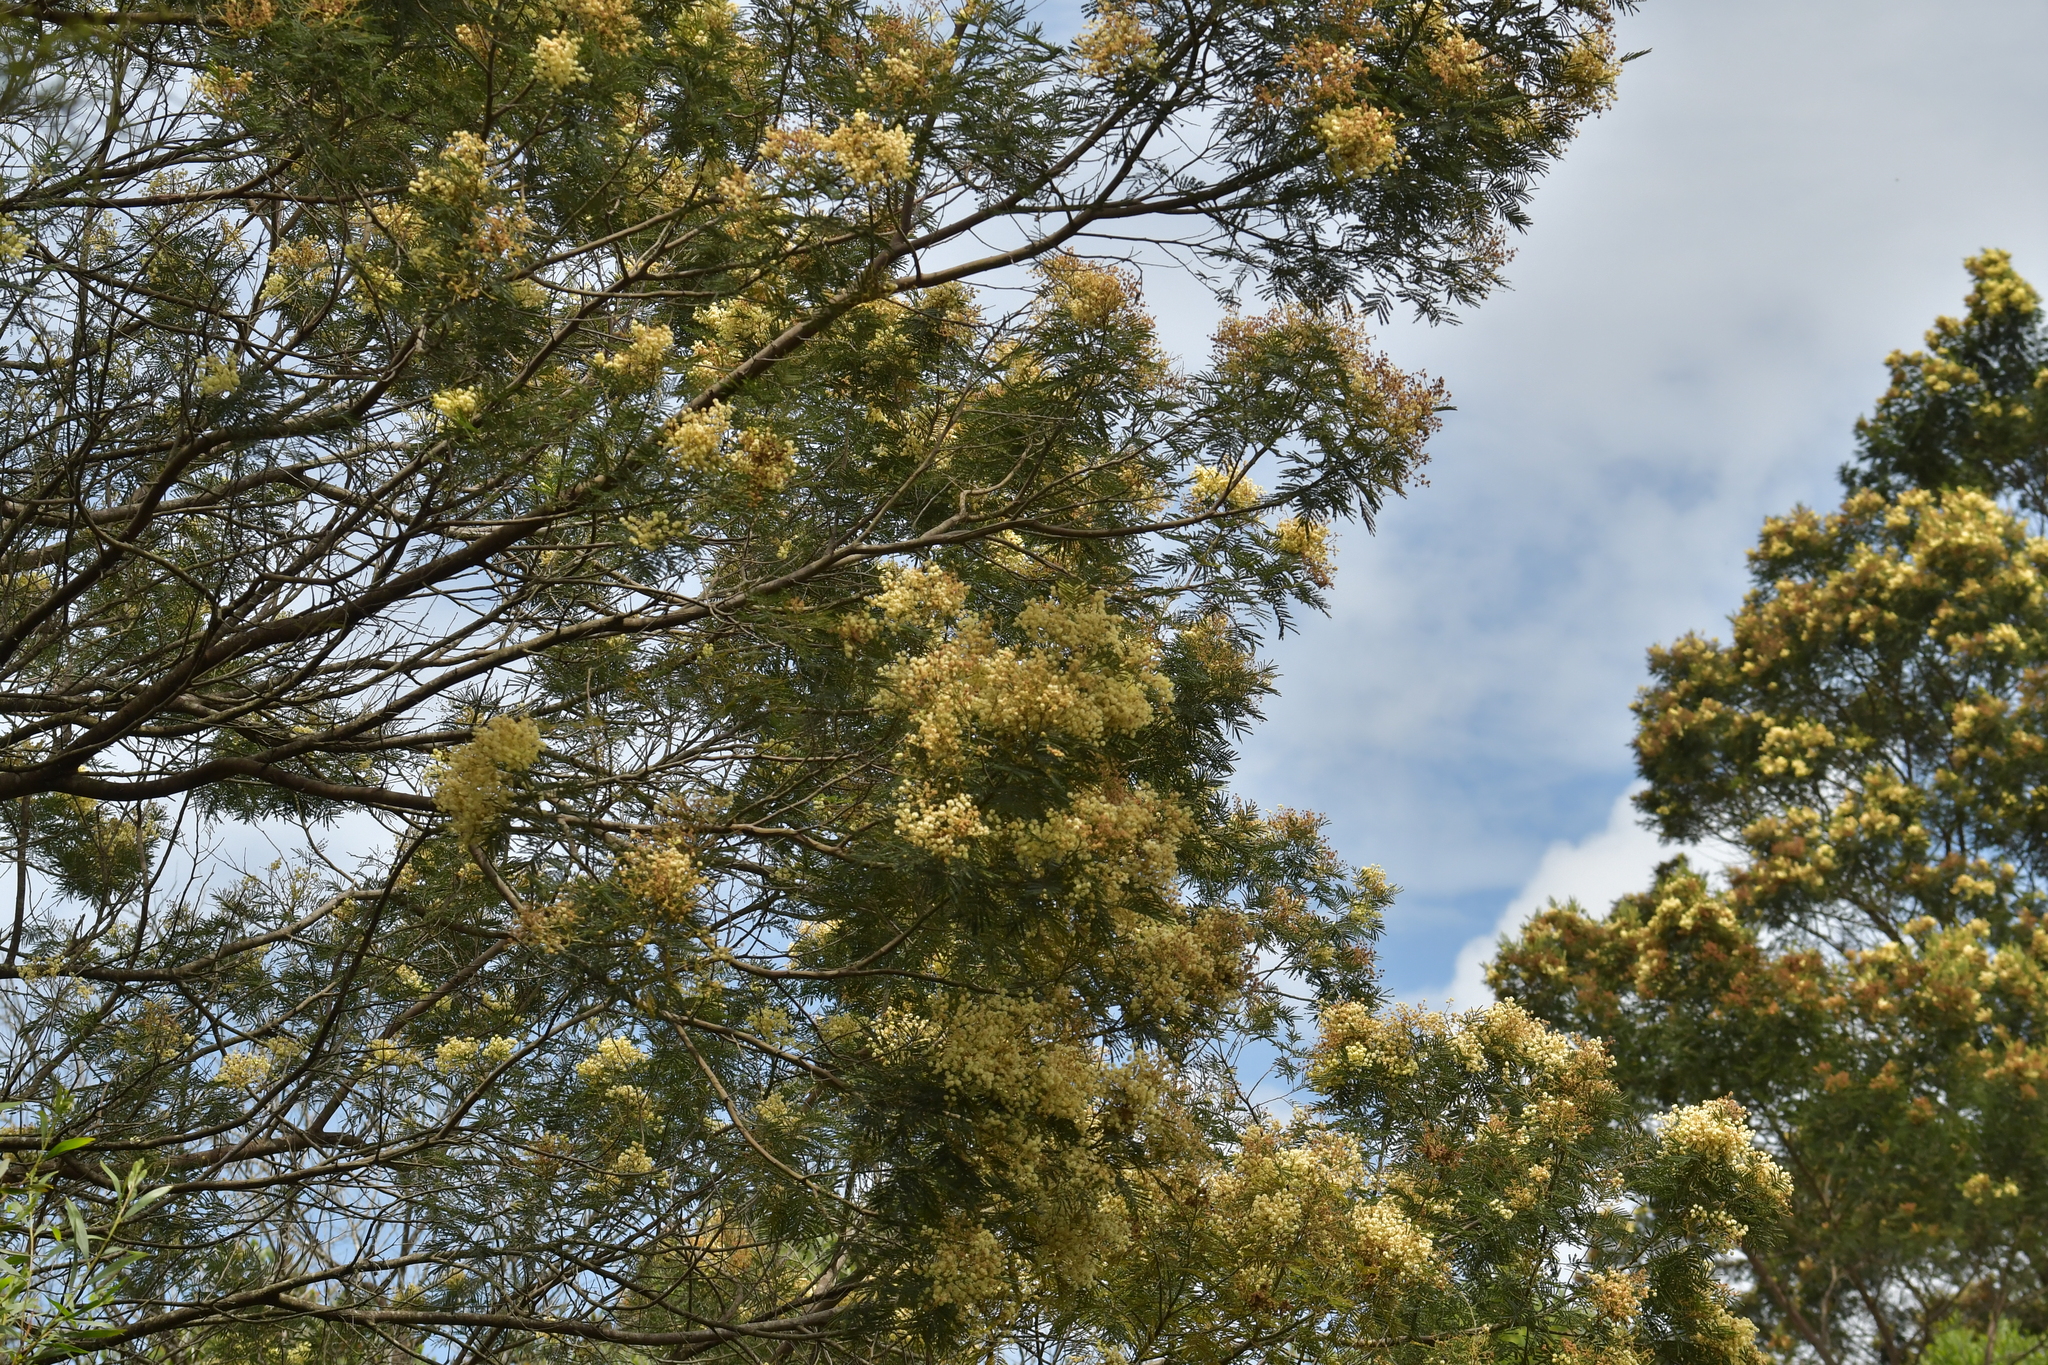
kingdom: Plantae
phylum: Tracheophyta
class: Magnoliopsida
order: Fabales
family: Fabaceae
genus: Acacia
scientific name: Acacia mearnsii
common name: Black wattle
